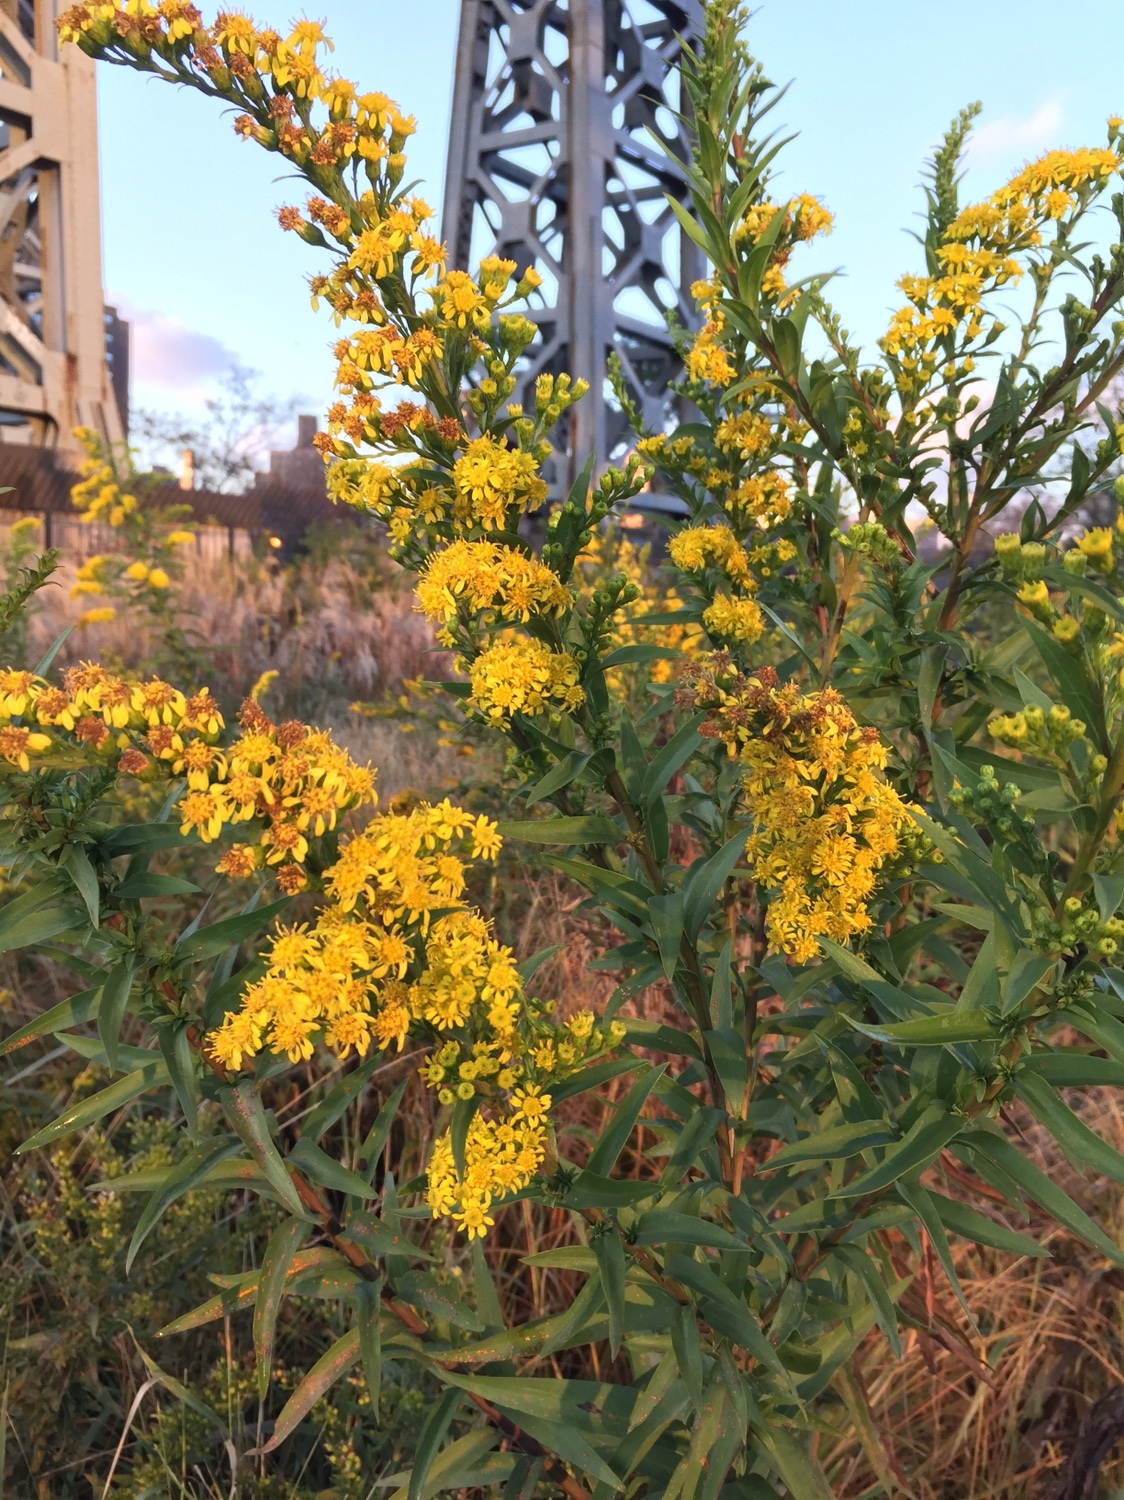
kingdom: Plantae
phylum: Tracheophyta
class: Magnoliopsida
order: Asterales
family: Asteraceae
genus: Solidago
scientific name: Solidago sempervirens
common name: Salt-marsh goldenrod
